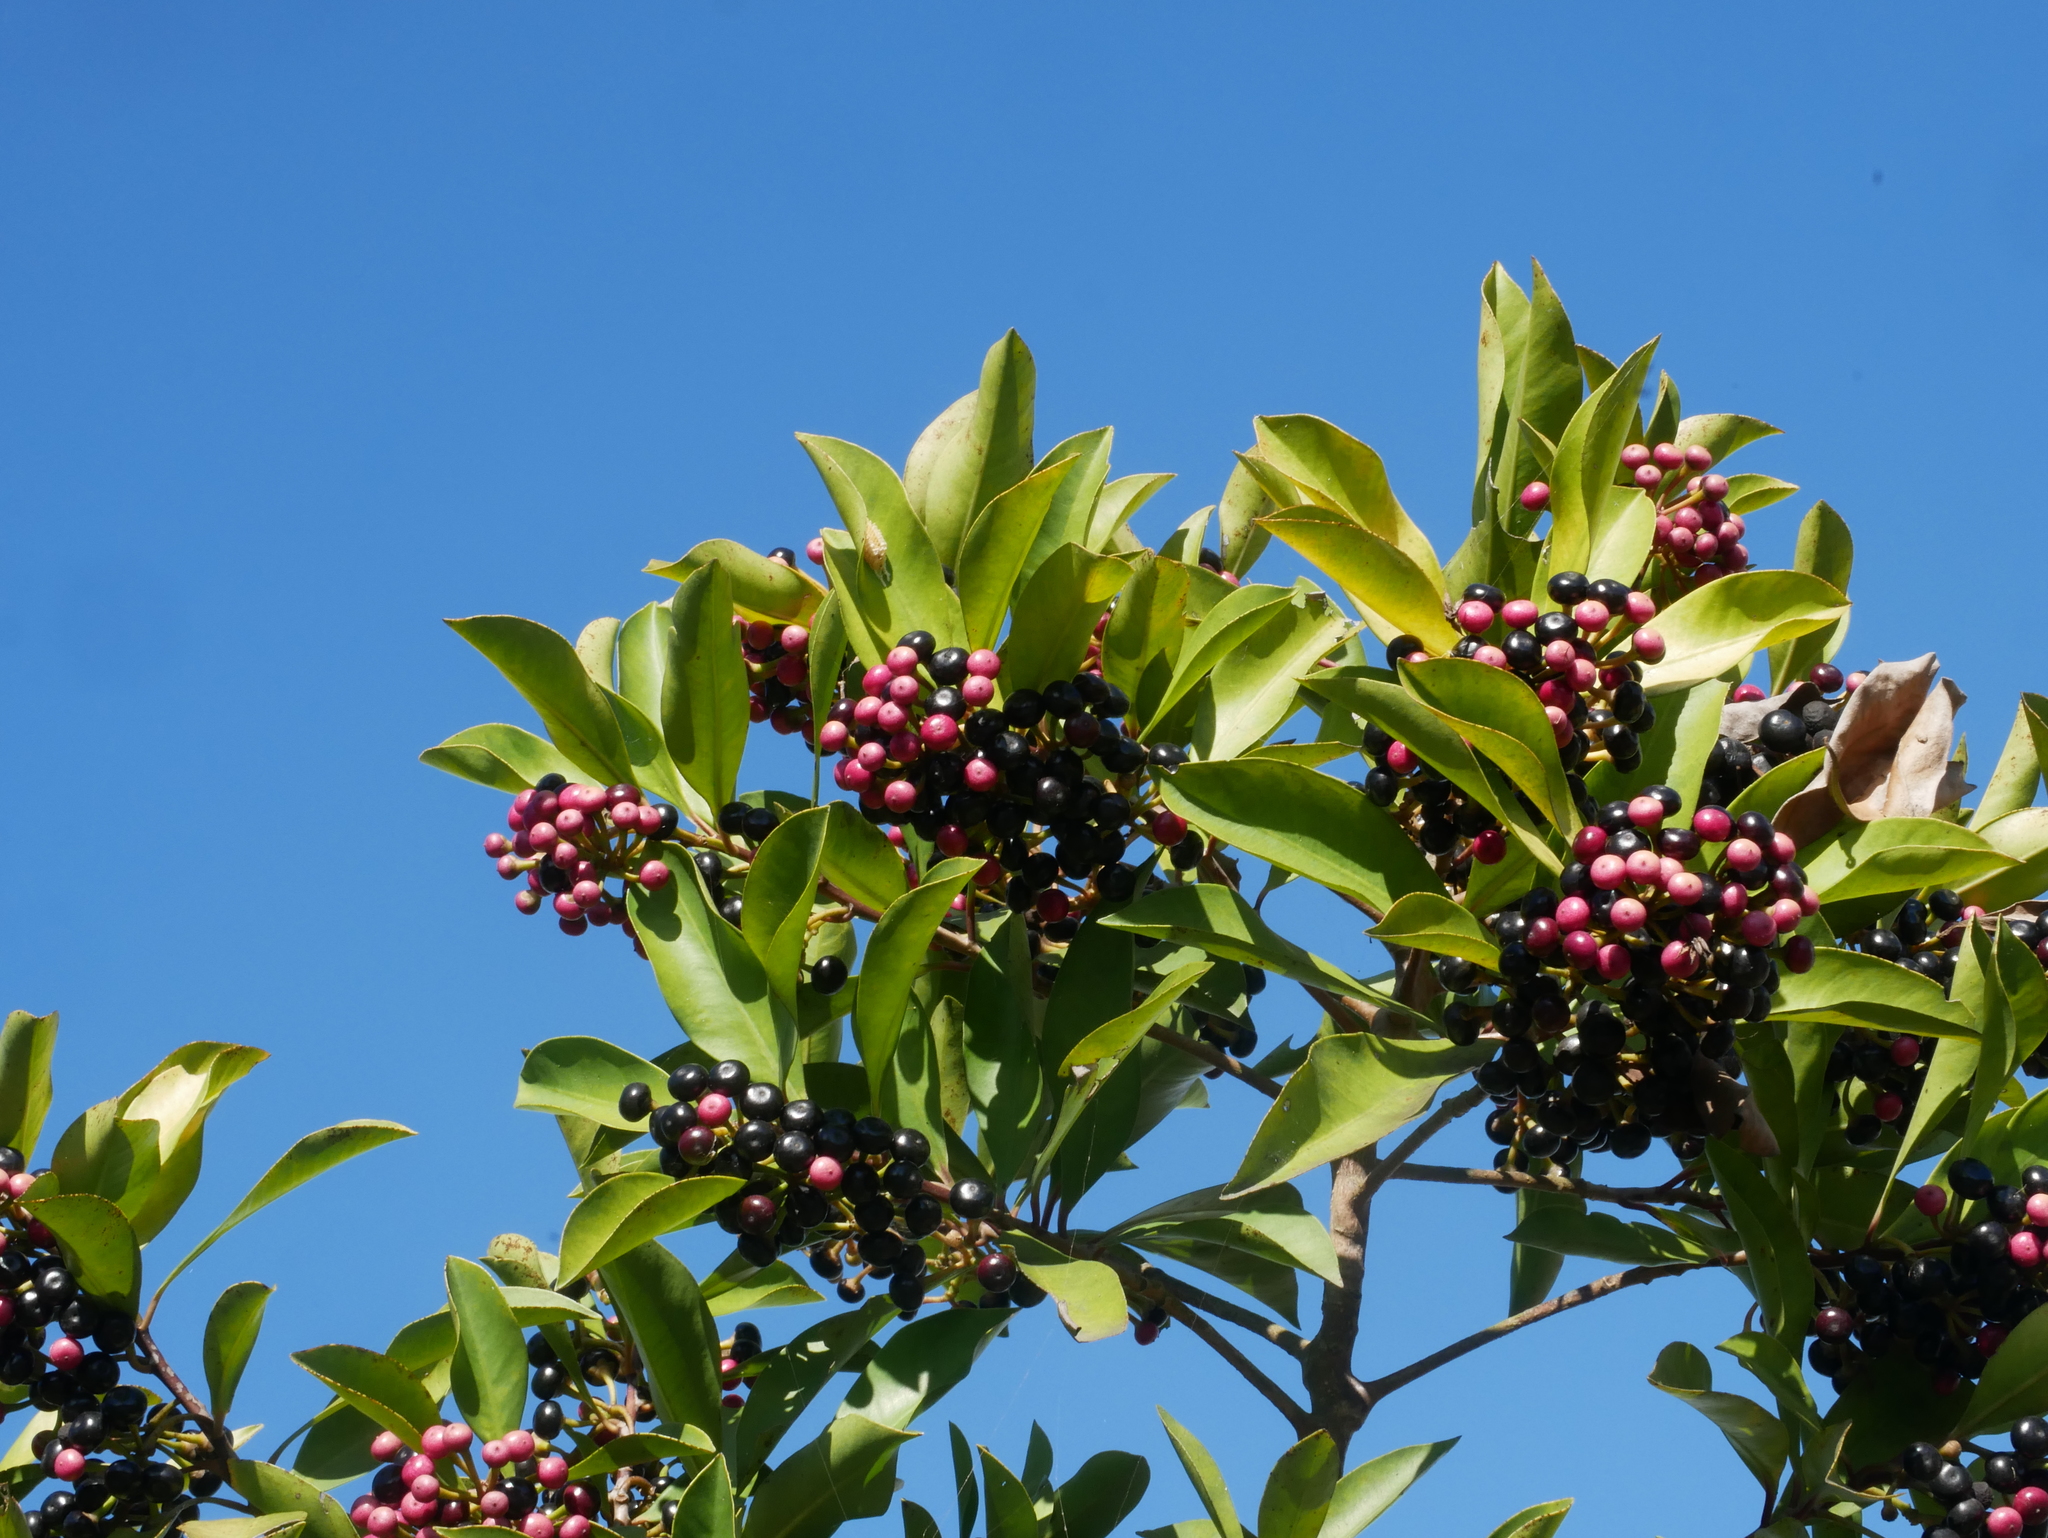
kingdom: Plantae
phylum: Tracheophyta
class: Magnoliopsida
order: Ericales
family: Primulaceae
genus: Ardisia
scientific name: Ardisia elliptica
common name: Shoebutton
